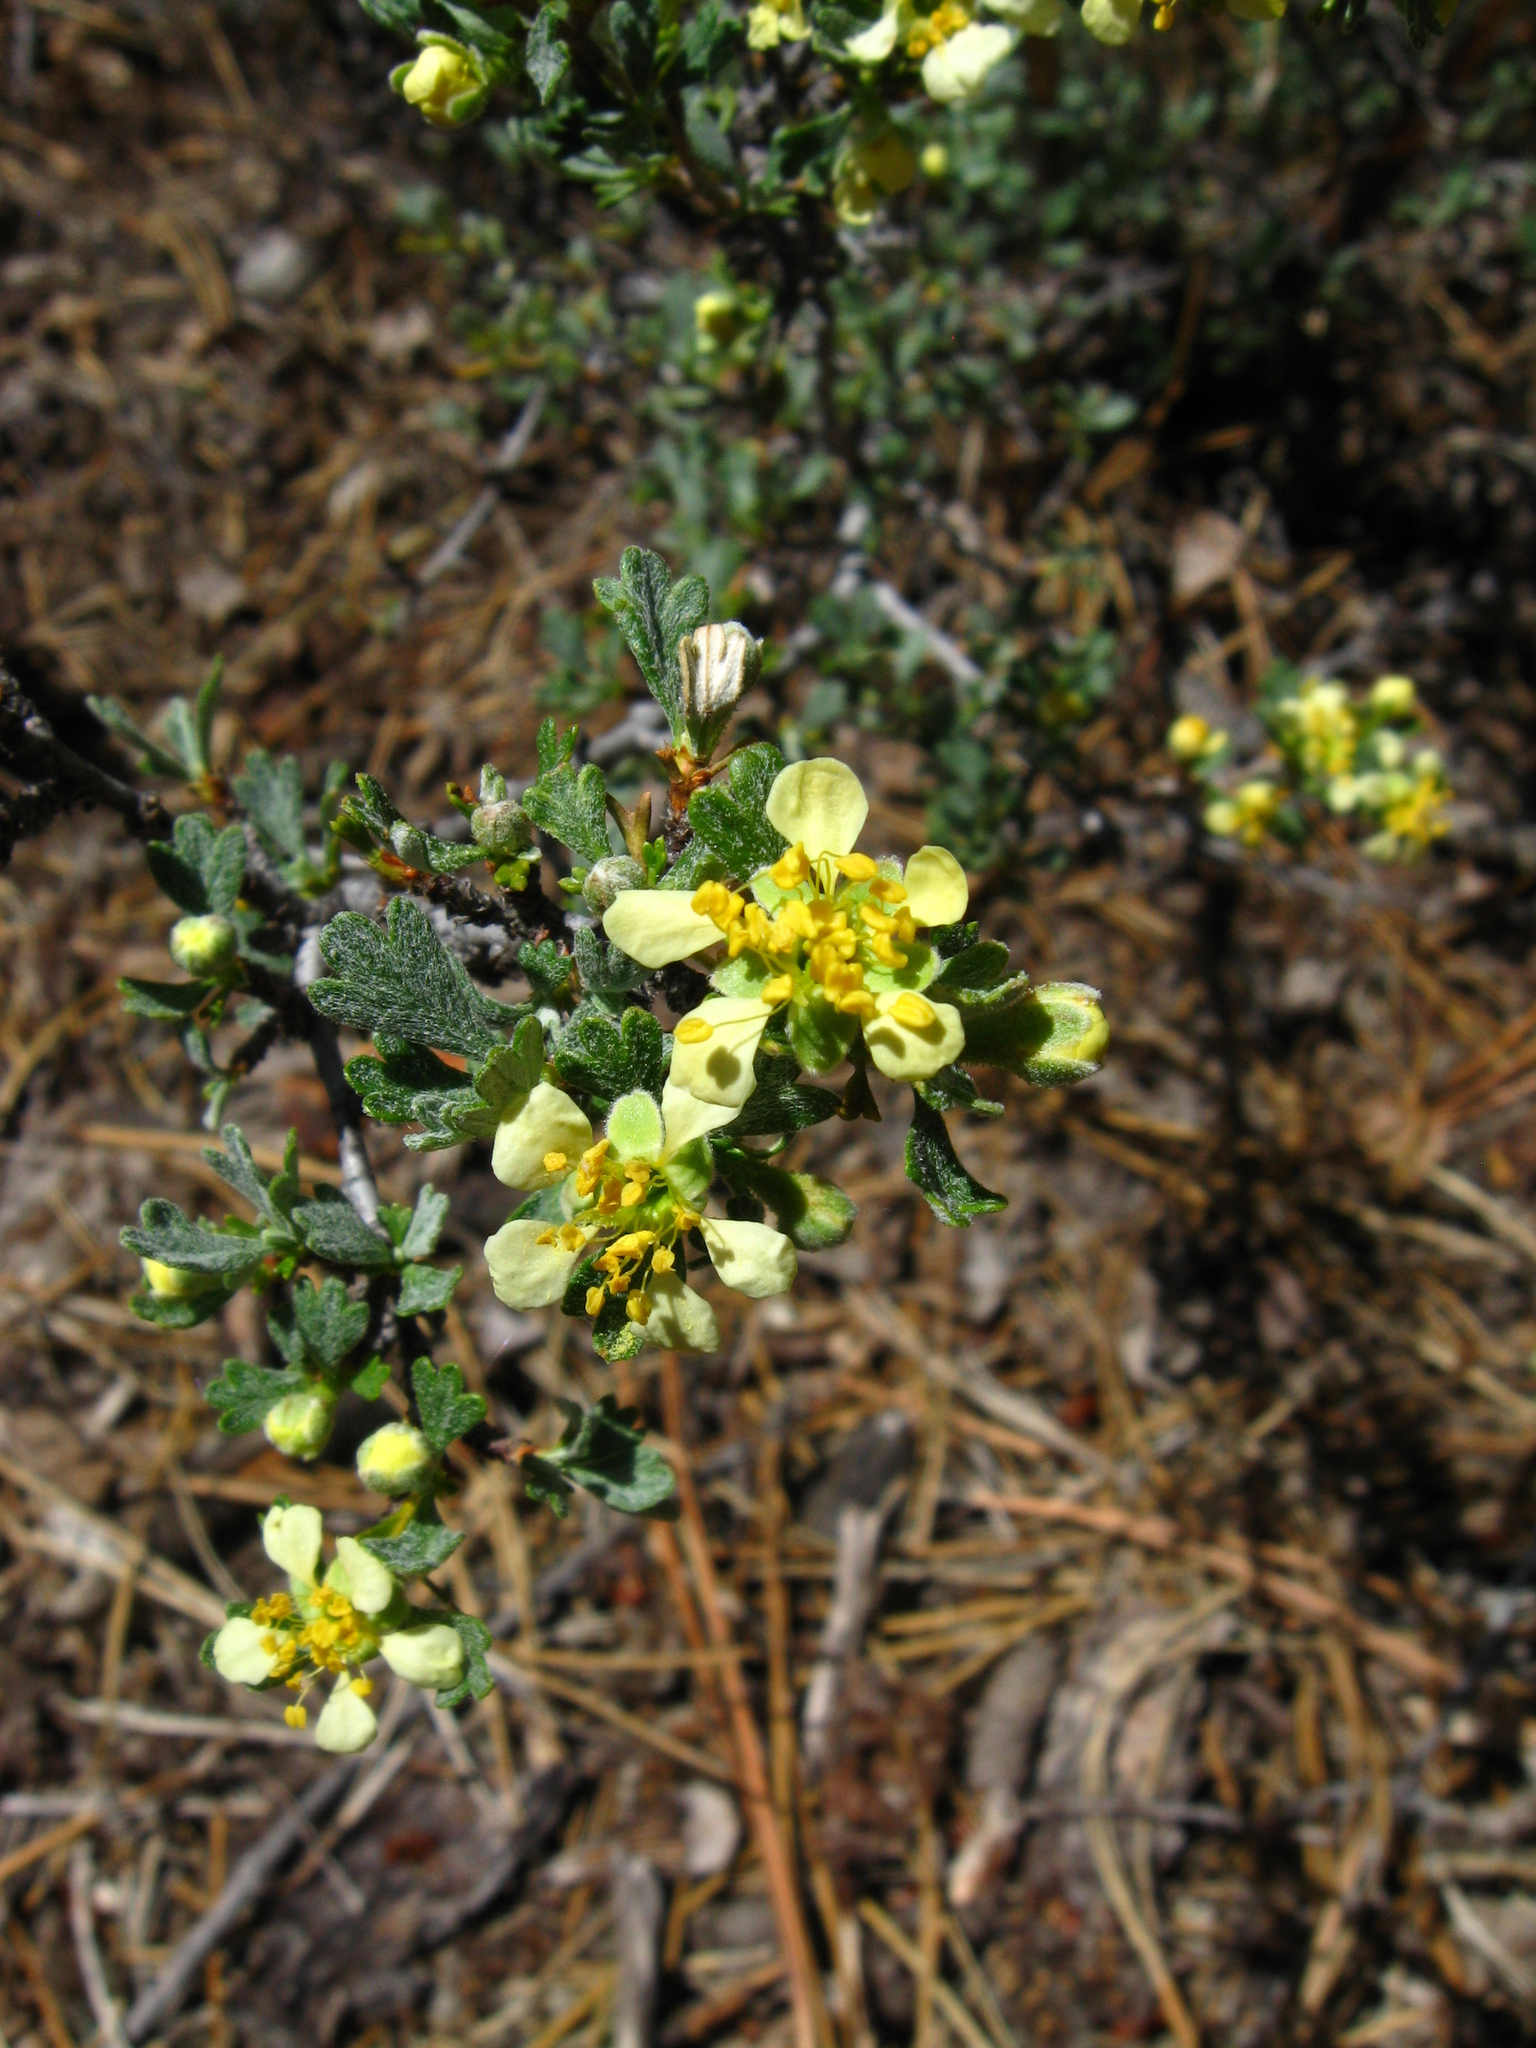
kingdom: Plantae
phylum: Tracheophyta
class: Magnoliopsida
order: Rosales
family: Rosaceae
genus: Purshia
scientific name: Purshia tridentata
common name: Antelope bitterbrush
